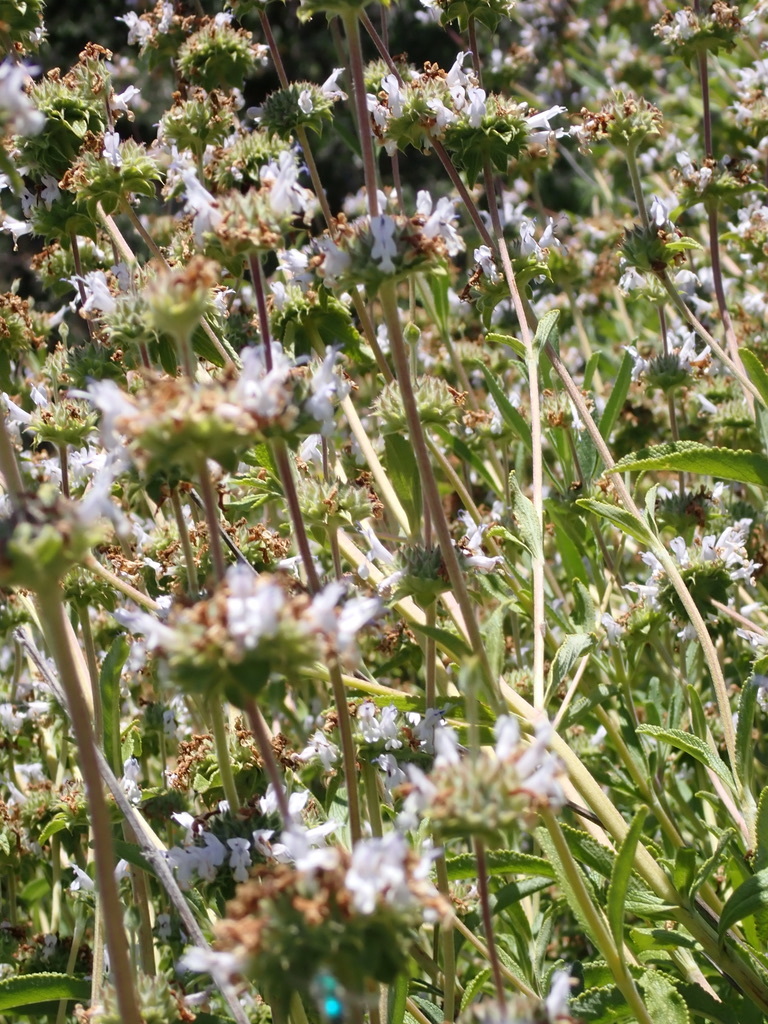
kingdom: Plantae
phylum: Tracheophyta
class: Magnoliopsida
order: Lamiales
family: Lamiaceae
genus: Salvia
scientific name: Salvia mellifera
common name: Black sage
